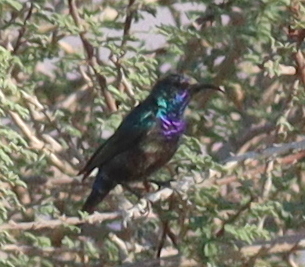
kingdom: Animalia
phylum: Chordata
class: Aves
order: Passeriformes
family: Nectariniidae
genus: Cinnyris
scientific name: Cinnyris osea
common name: Palestine sunbird
